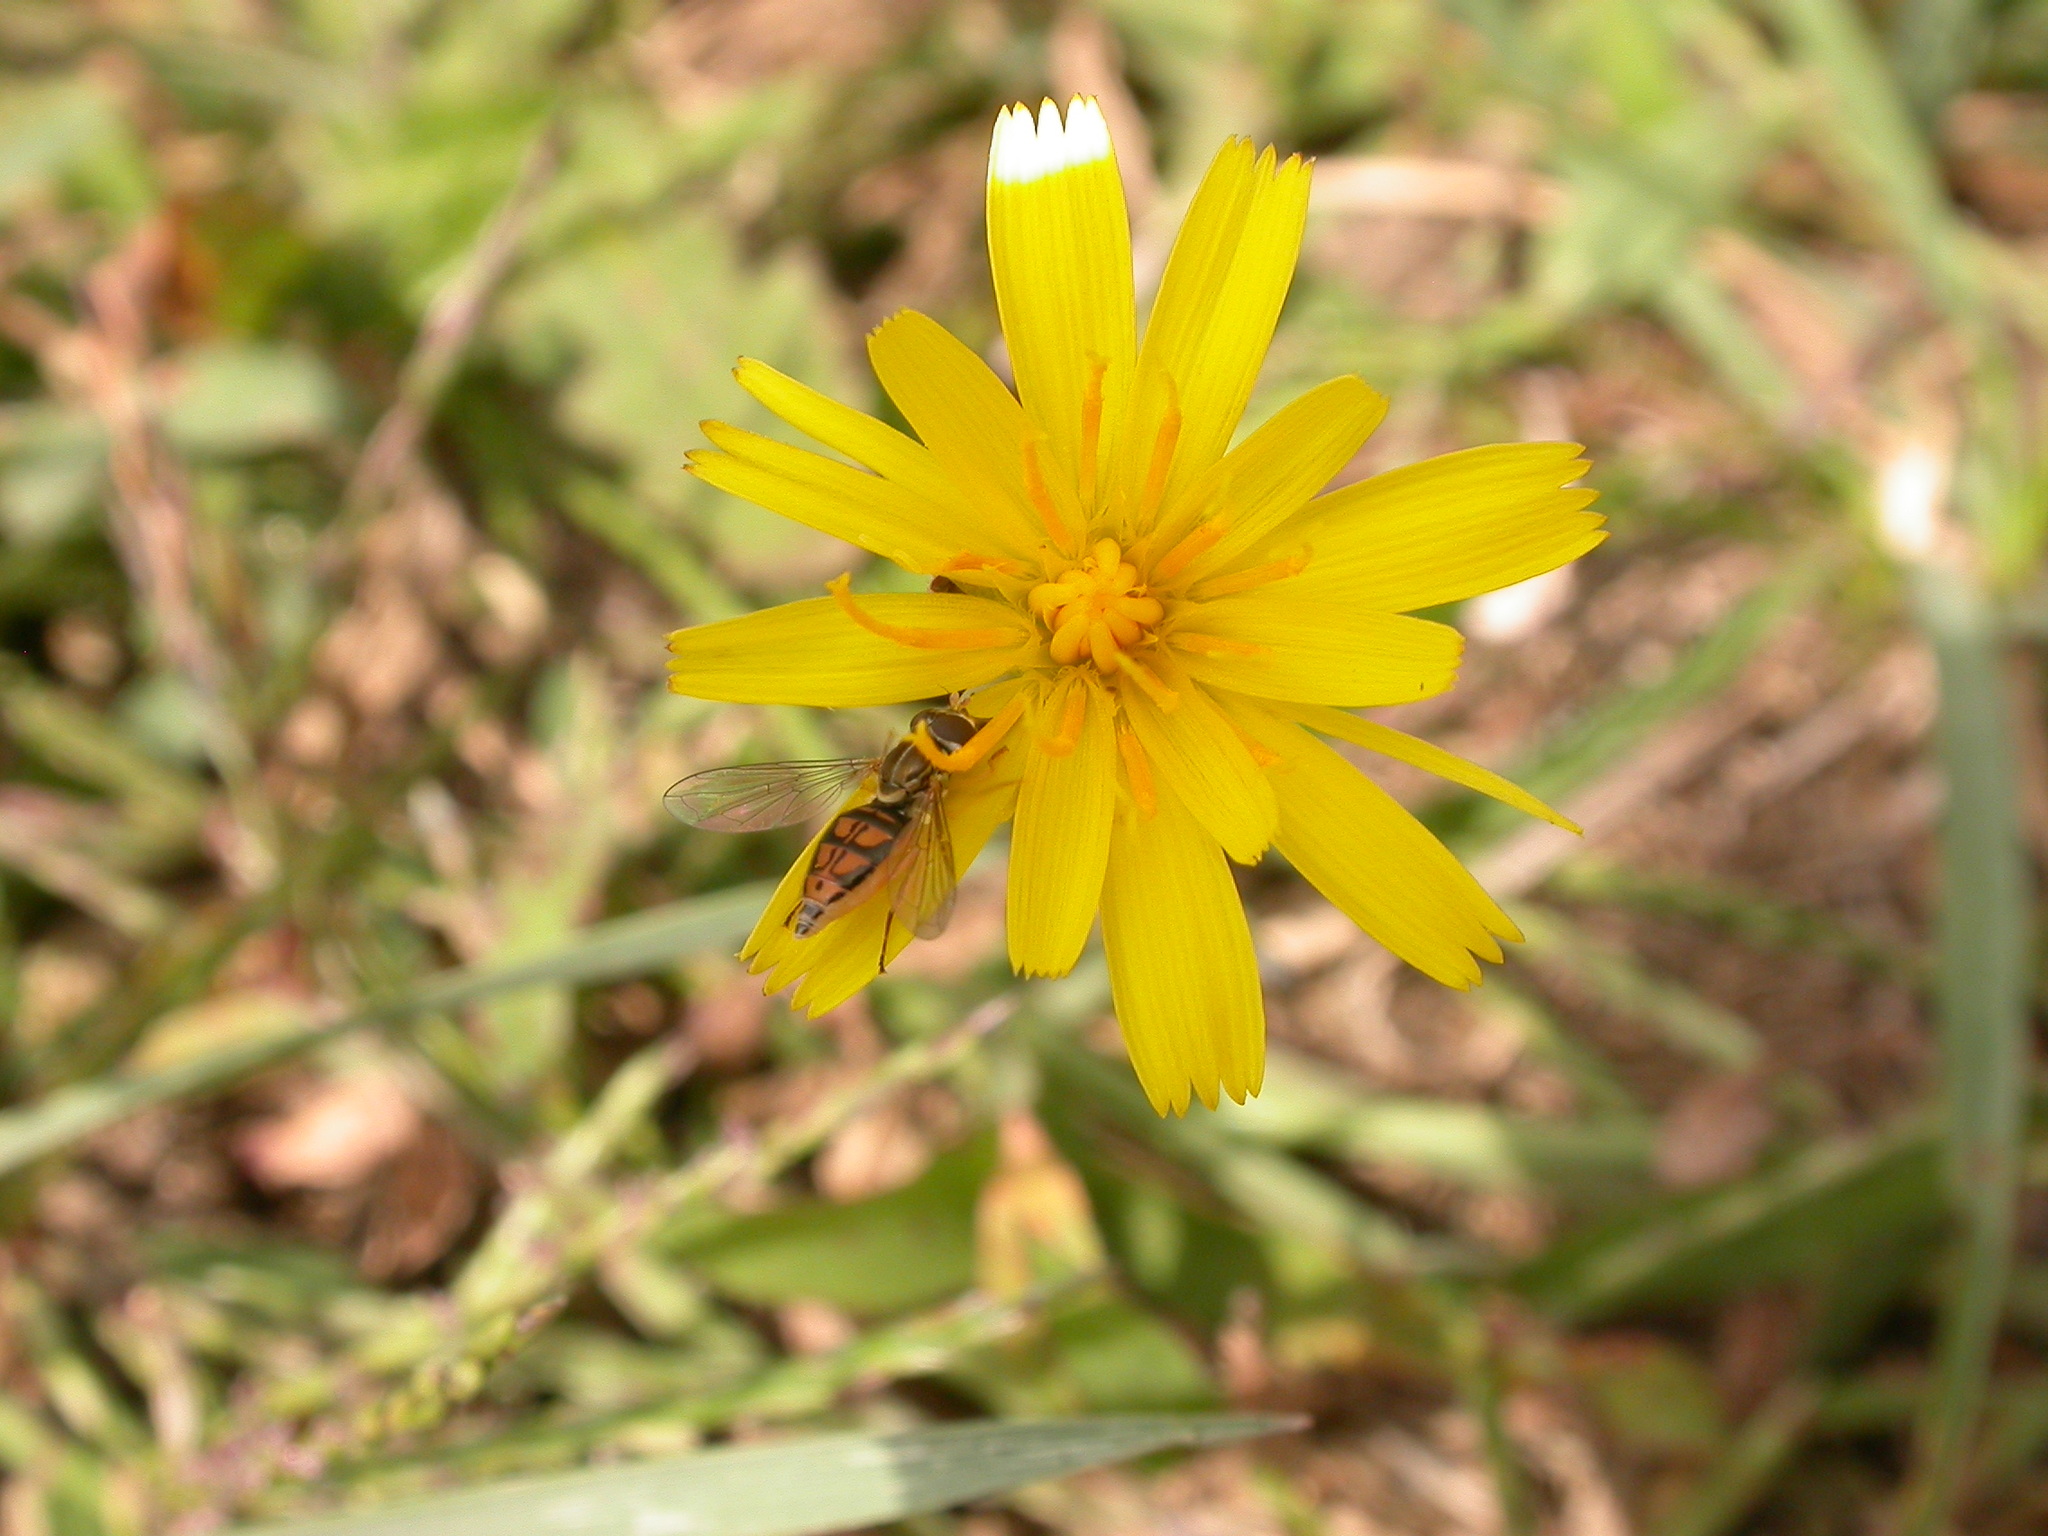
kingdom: Animalia
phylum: Arthropoda
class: Insecta
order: Diptera
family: Syrphidae
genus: Toxomerus
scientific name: Toxomerus marginatus
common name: Syrphid fly
